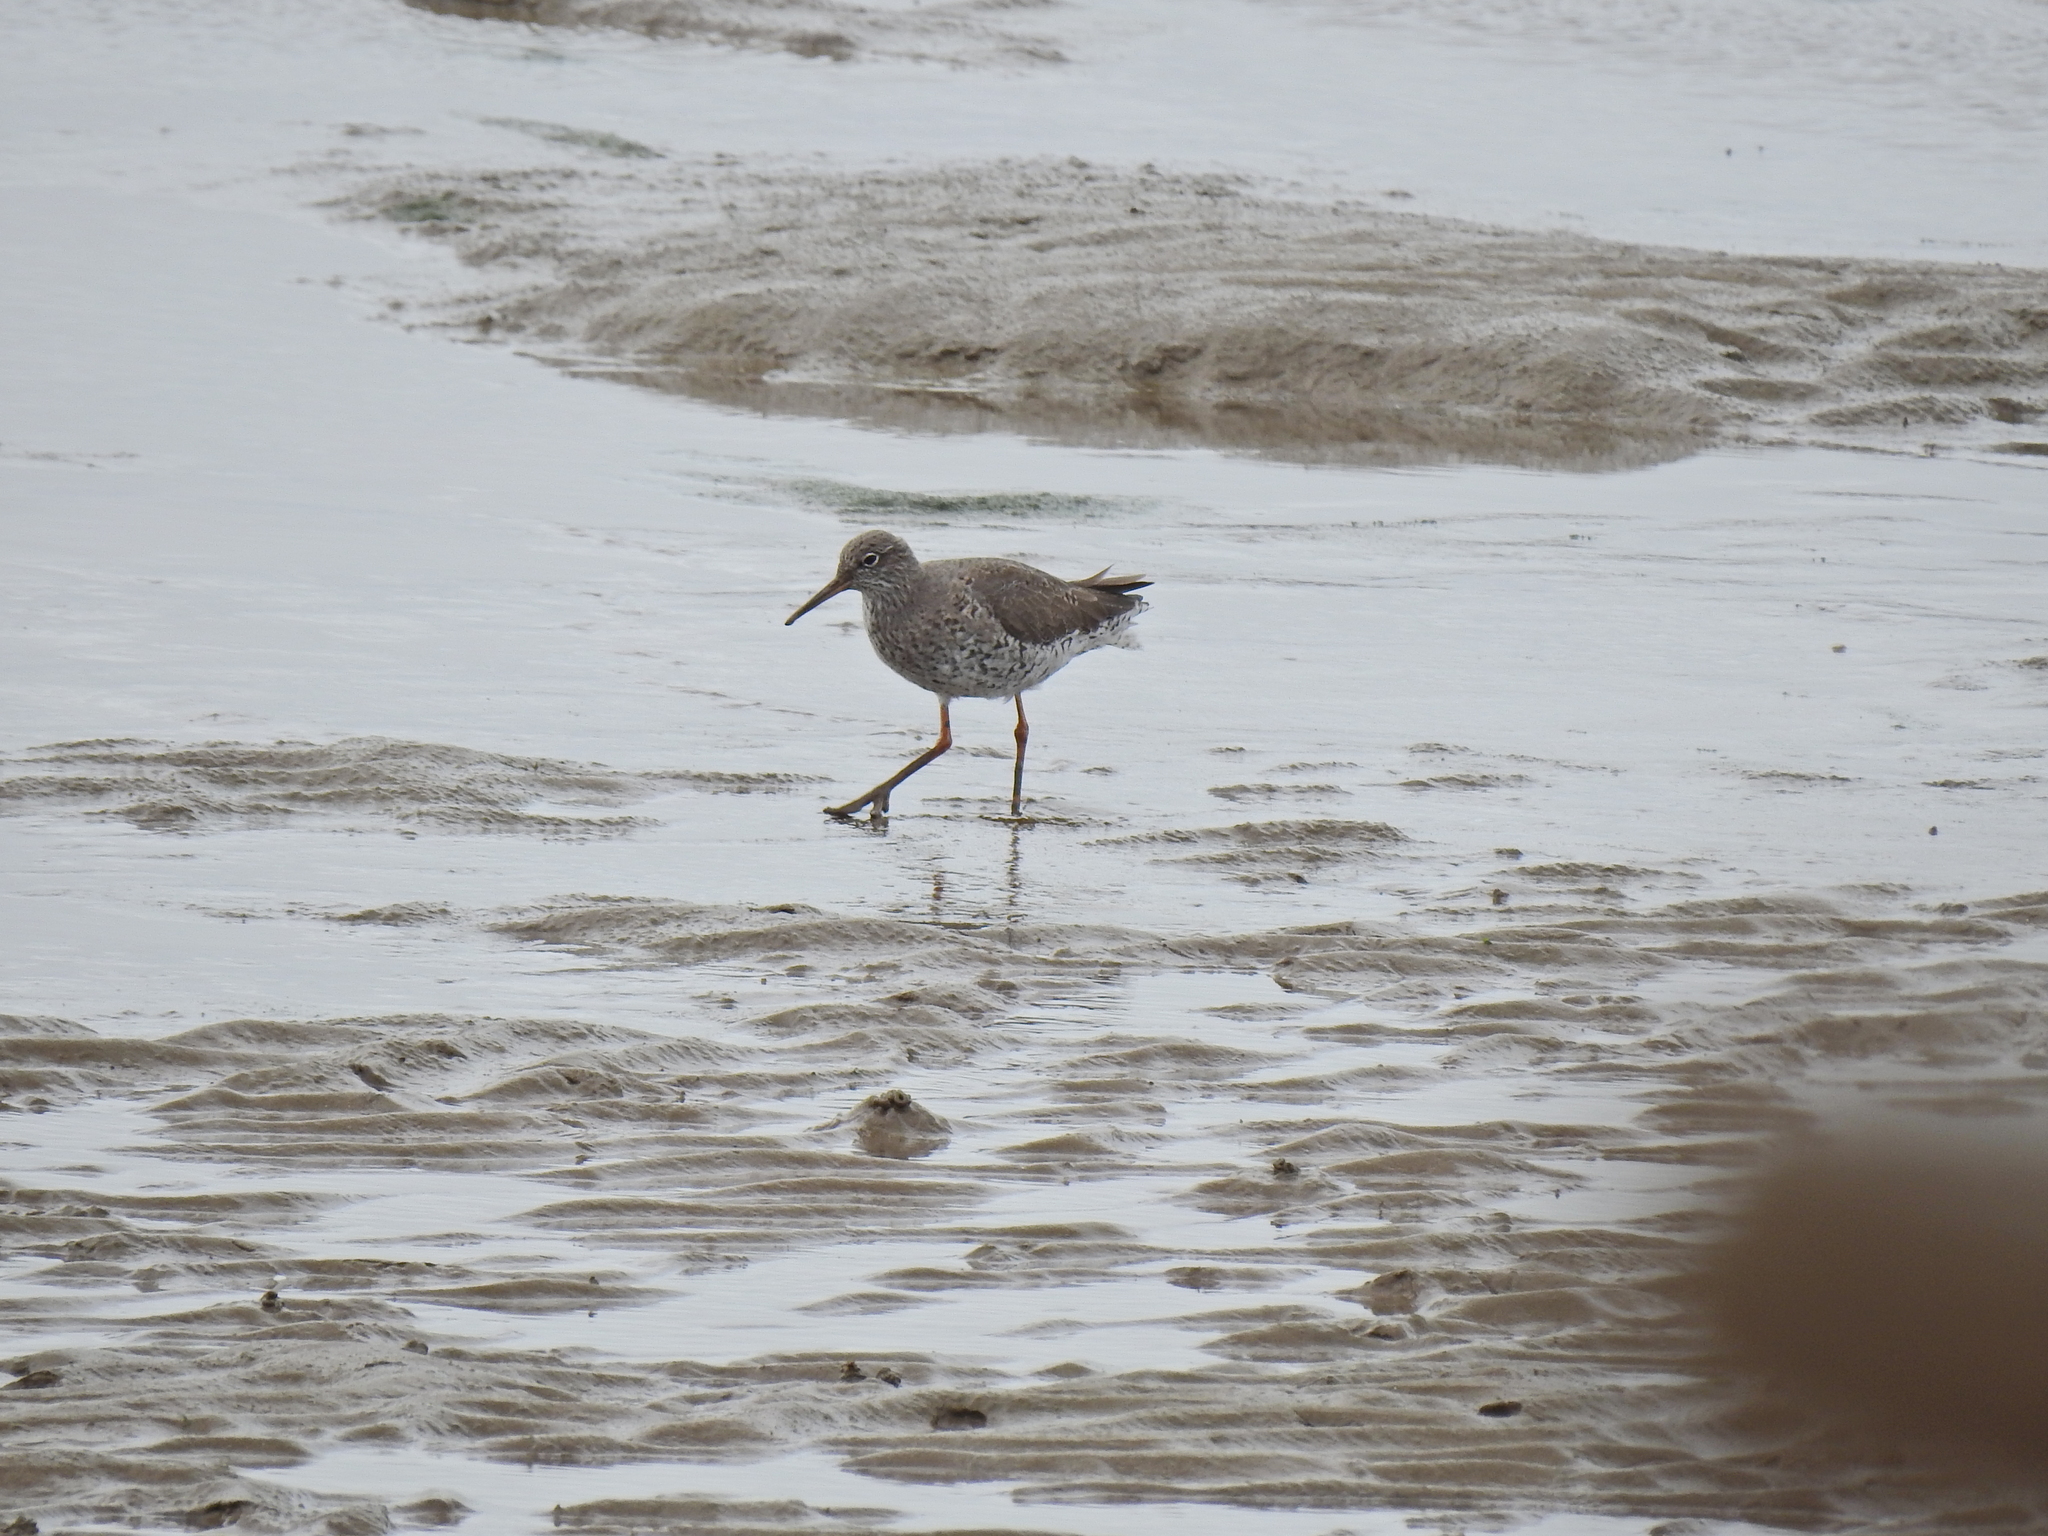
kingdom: Animalia
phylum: Chordata
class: Aves
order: Charadriiformes
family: Scolopacidae
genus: Tringa
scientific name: Tringa totanus
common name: Common redshank
